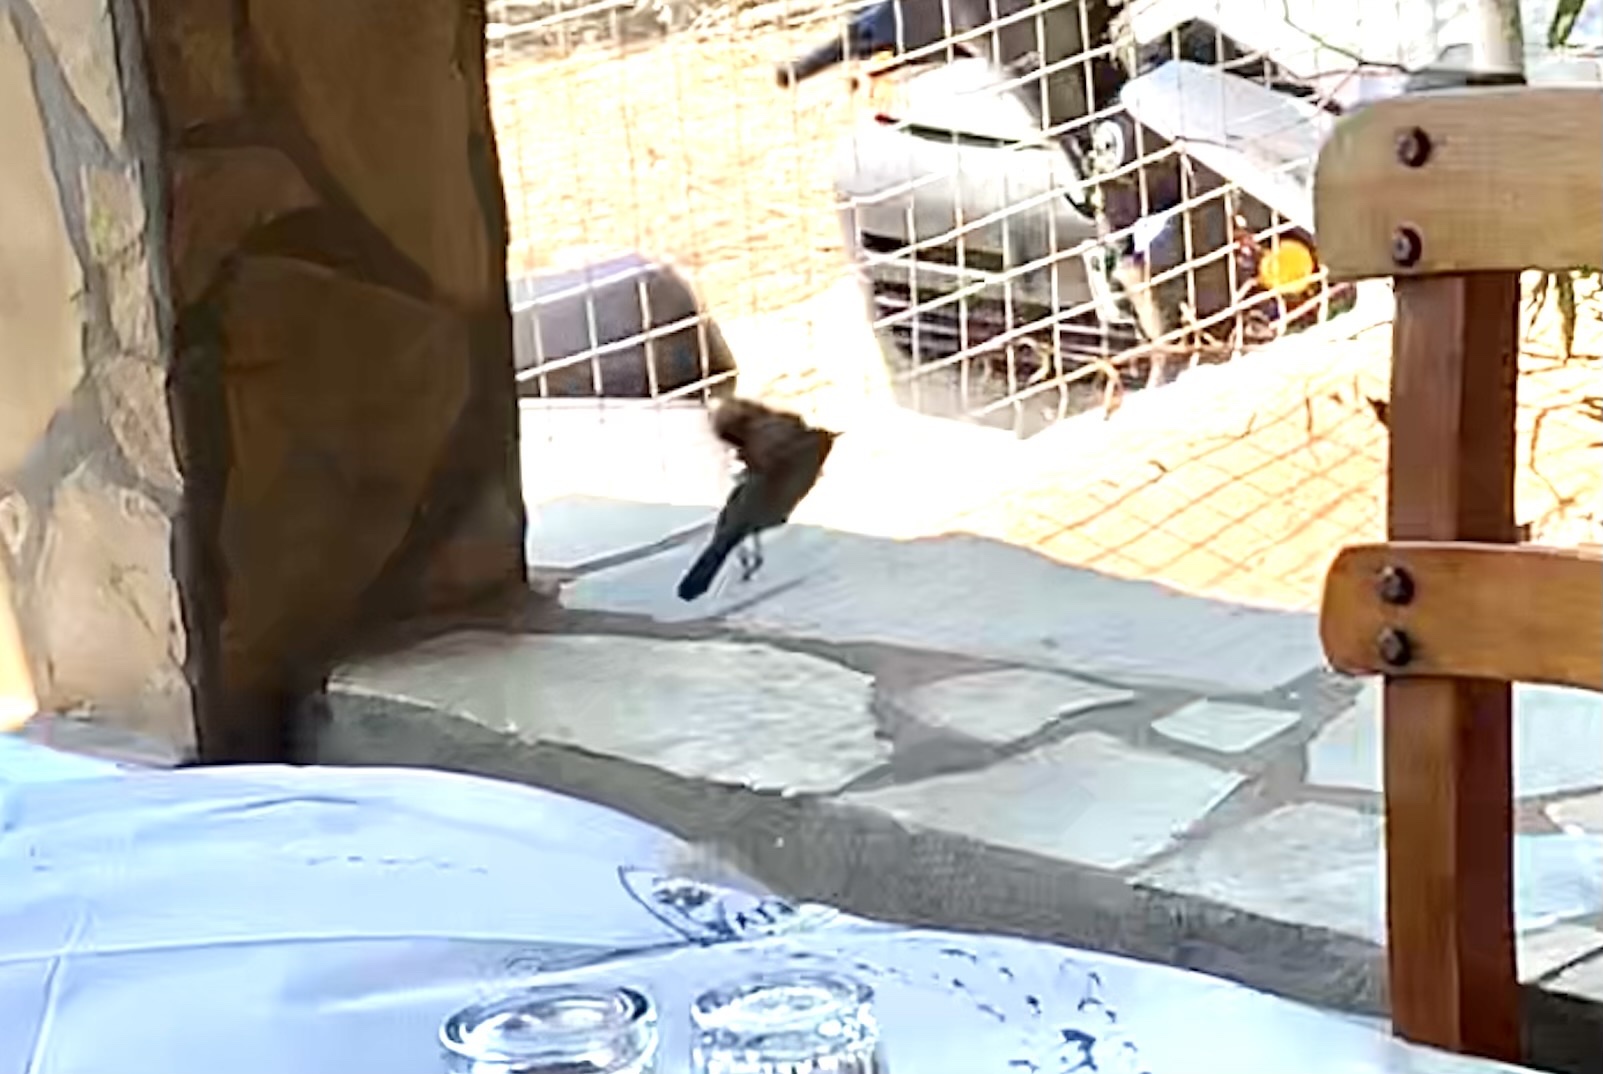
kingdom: Animalia
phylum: Chordata
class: Aves
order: Passeriformes
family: Sylviidae
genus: Curruca
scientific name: Curruca melanocephala
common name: Sardinian warbler
